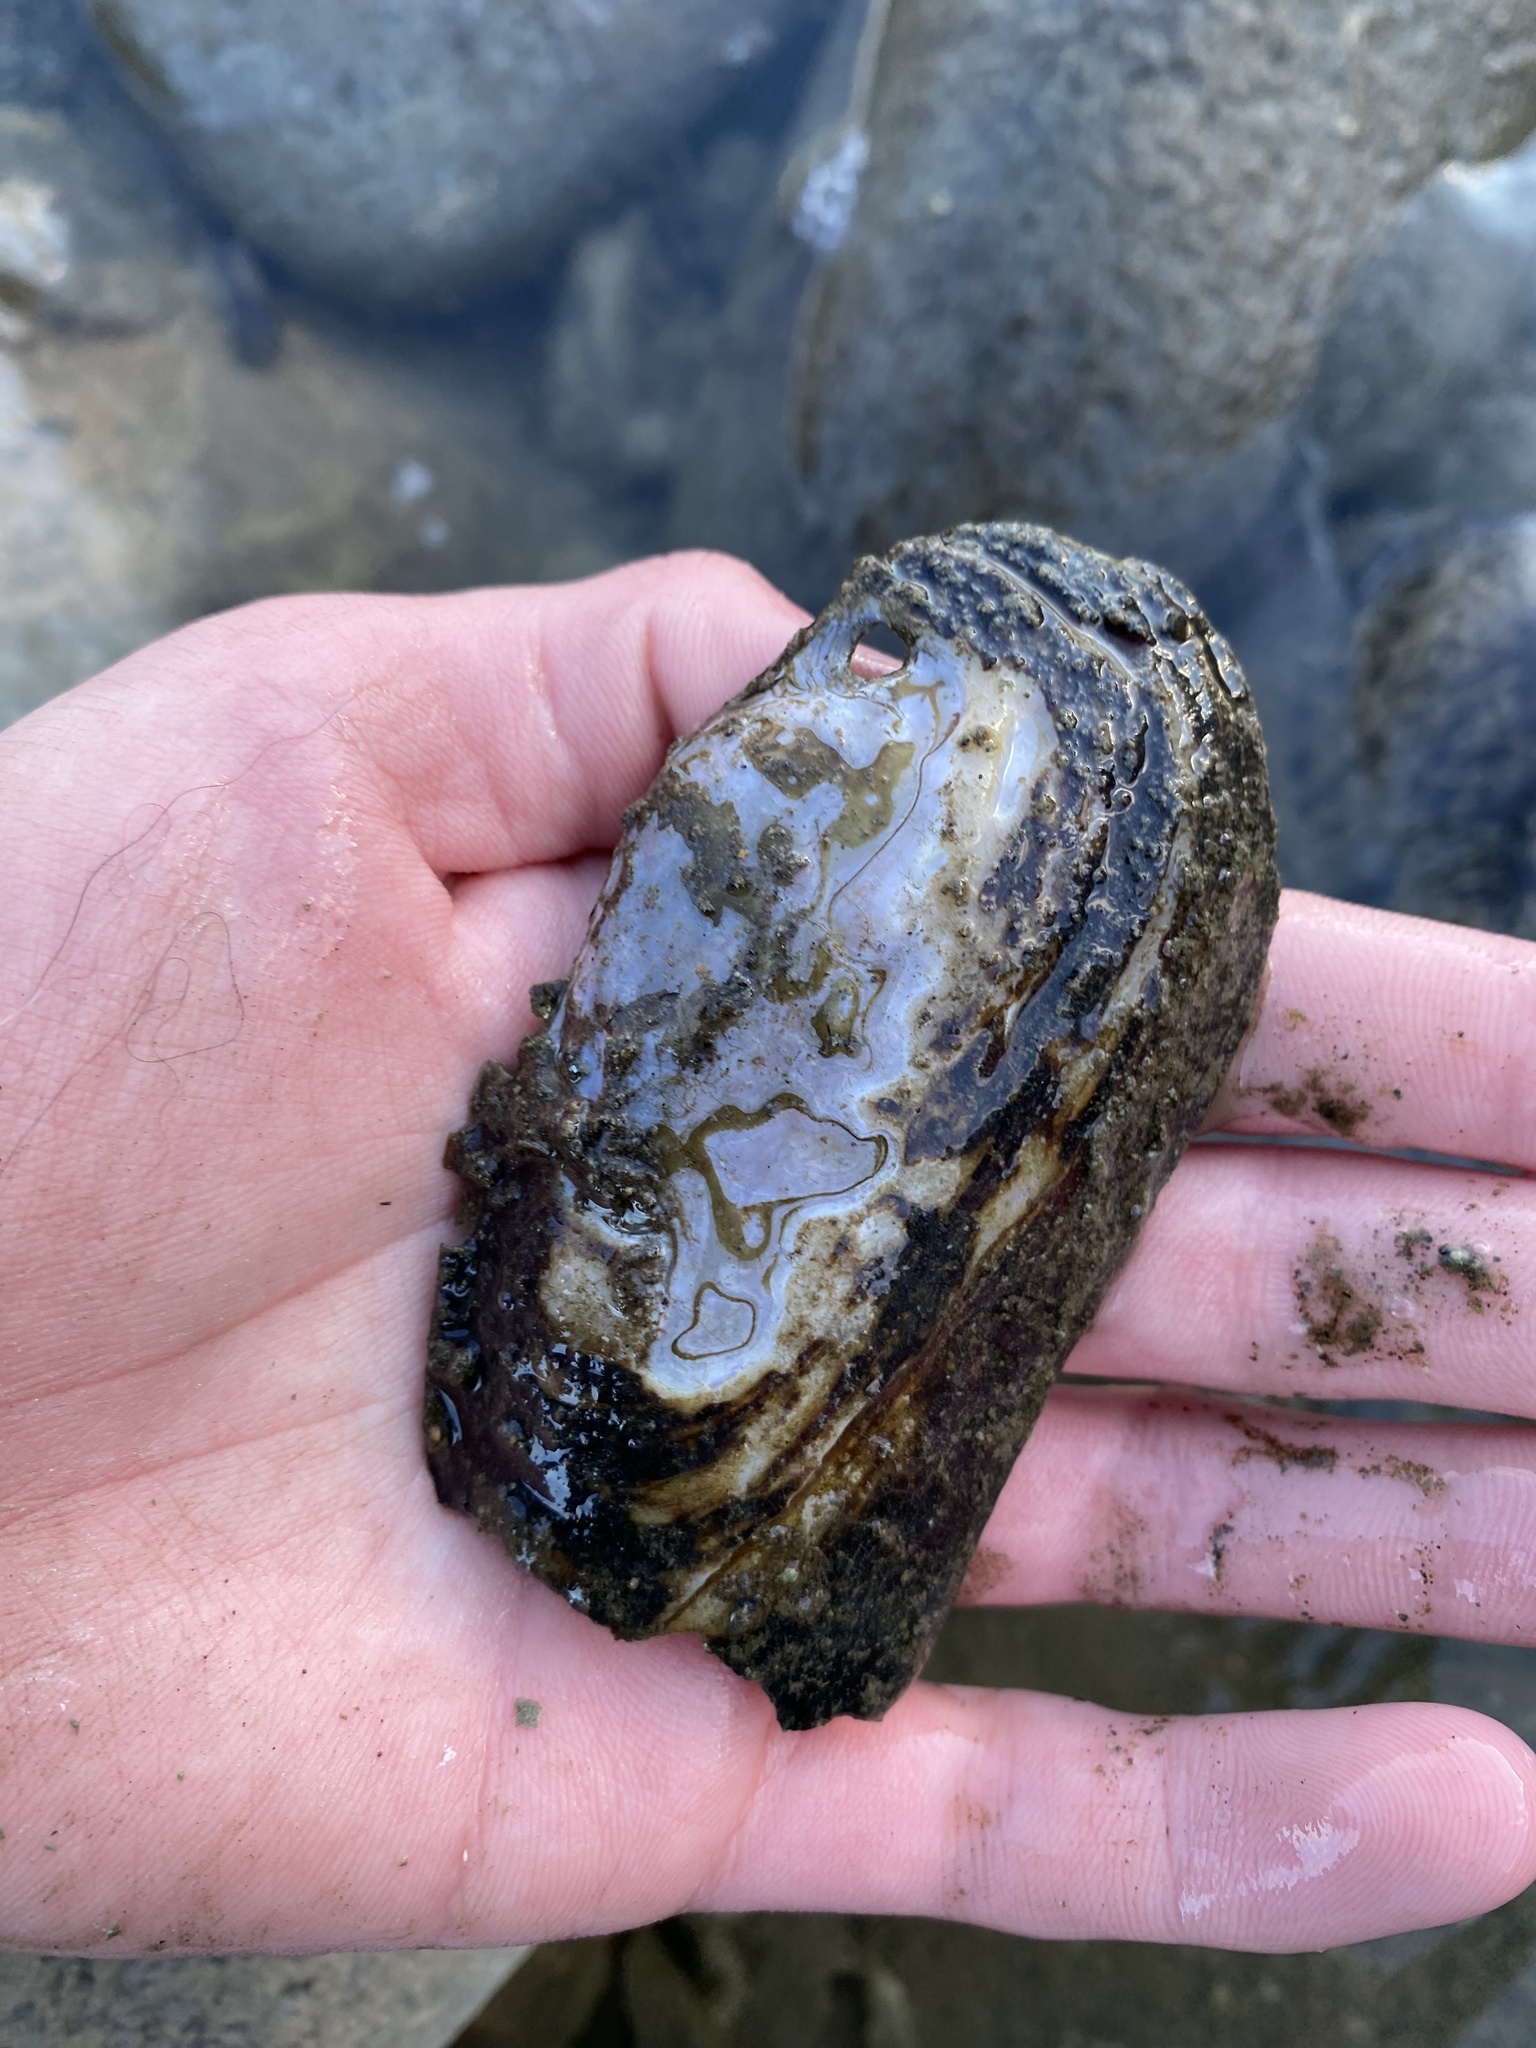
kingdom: Animalia
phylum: Mollusca
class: Bivalvia
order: Unionida
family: Margaritiferidae
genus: Margaritifera
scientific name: Margaritifera falcata
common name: Western pearlshell
